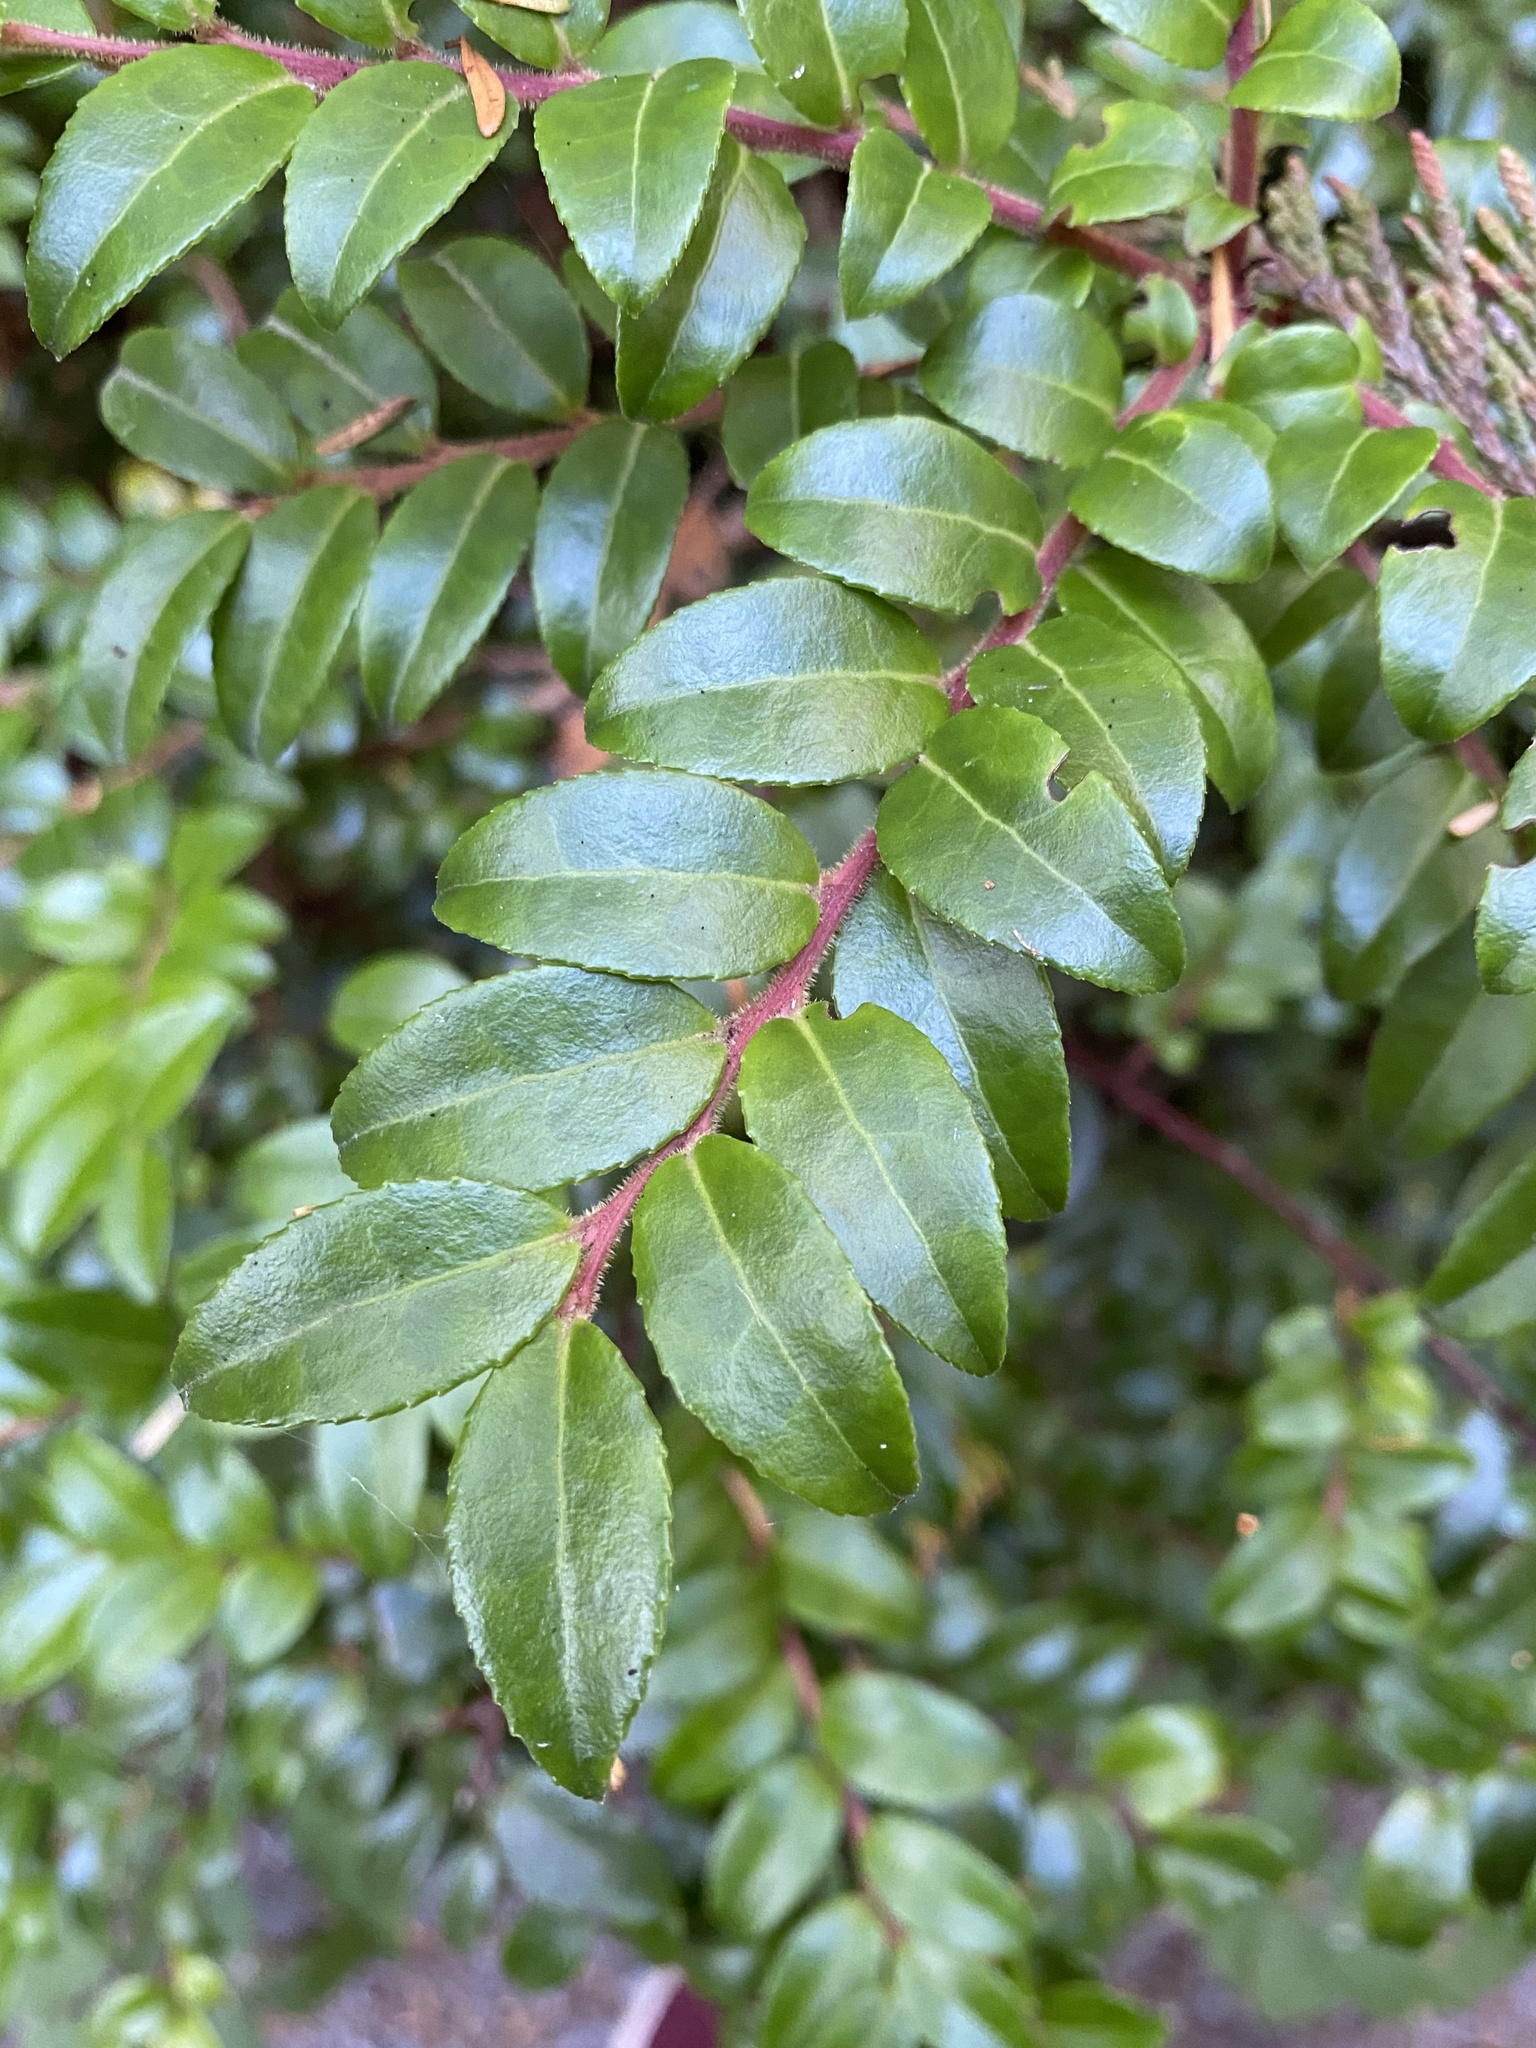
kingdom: Plantae
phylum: Tracheophyta
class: Magnoliopsida
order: Ericales
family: Ericaceae
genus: Vaccinium
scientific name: Vaccinium ovatum
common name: California-huckleberry
